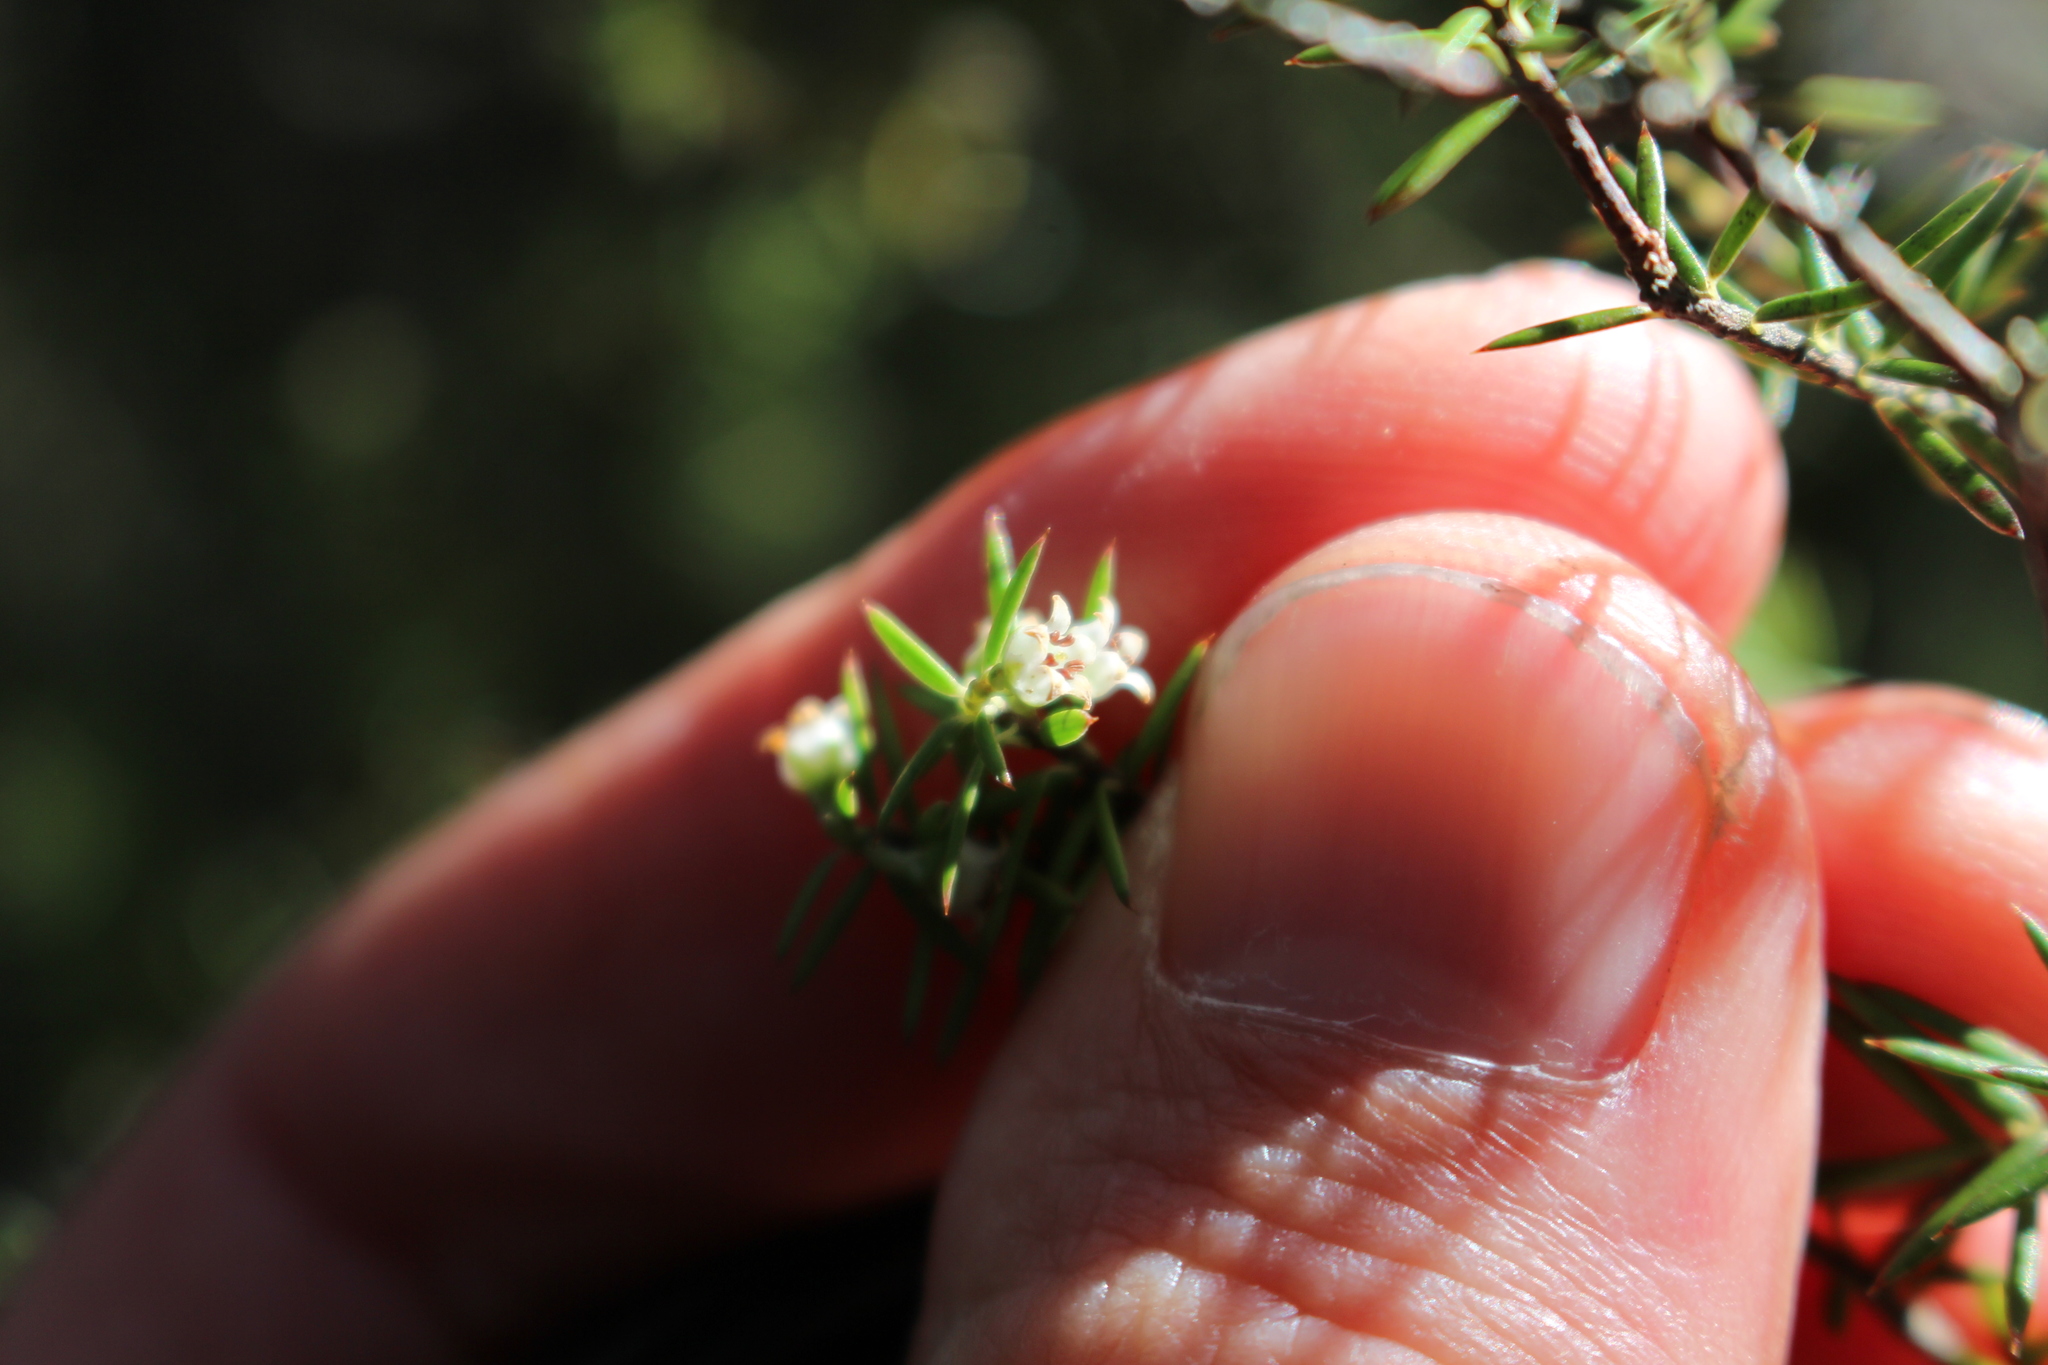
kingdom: Plantae
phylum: Tracheophyta
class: Magnoliopsida
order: Ericales
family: Ericaceae
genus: Leptecophylla
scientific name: Leptecophylla juniperina
